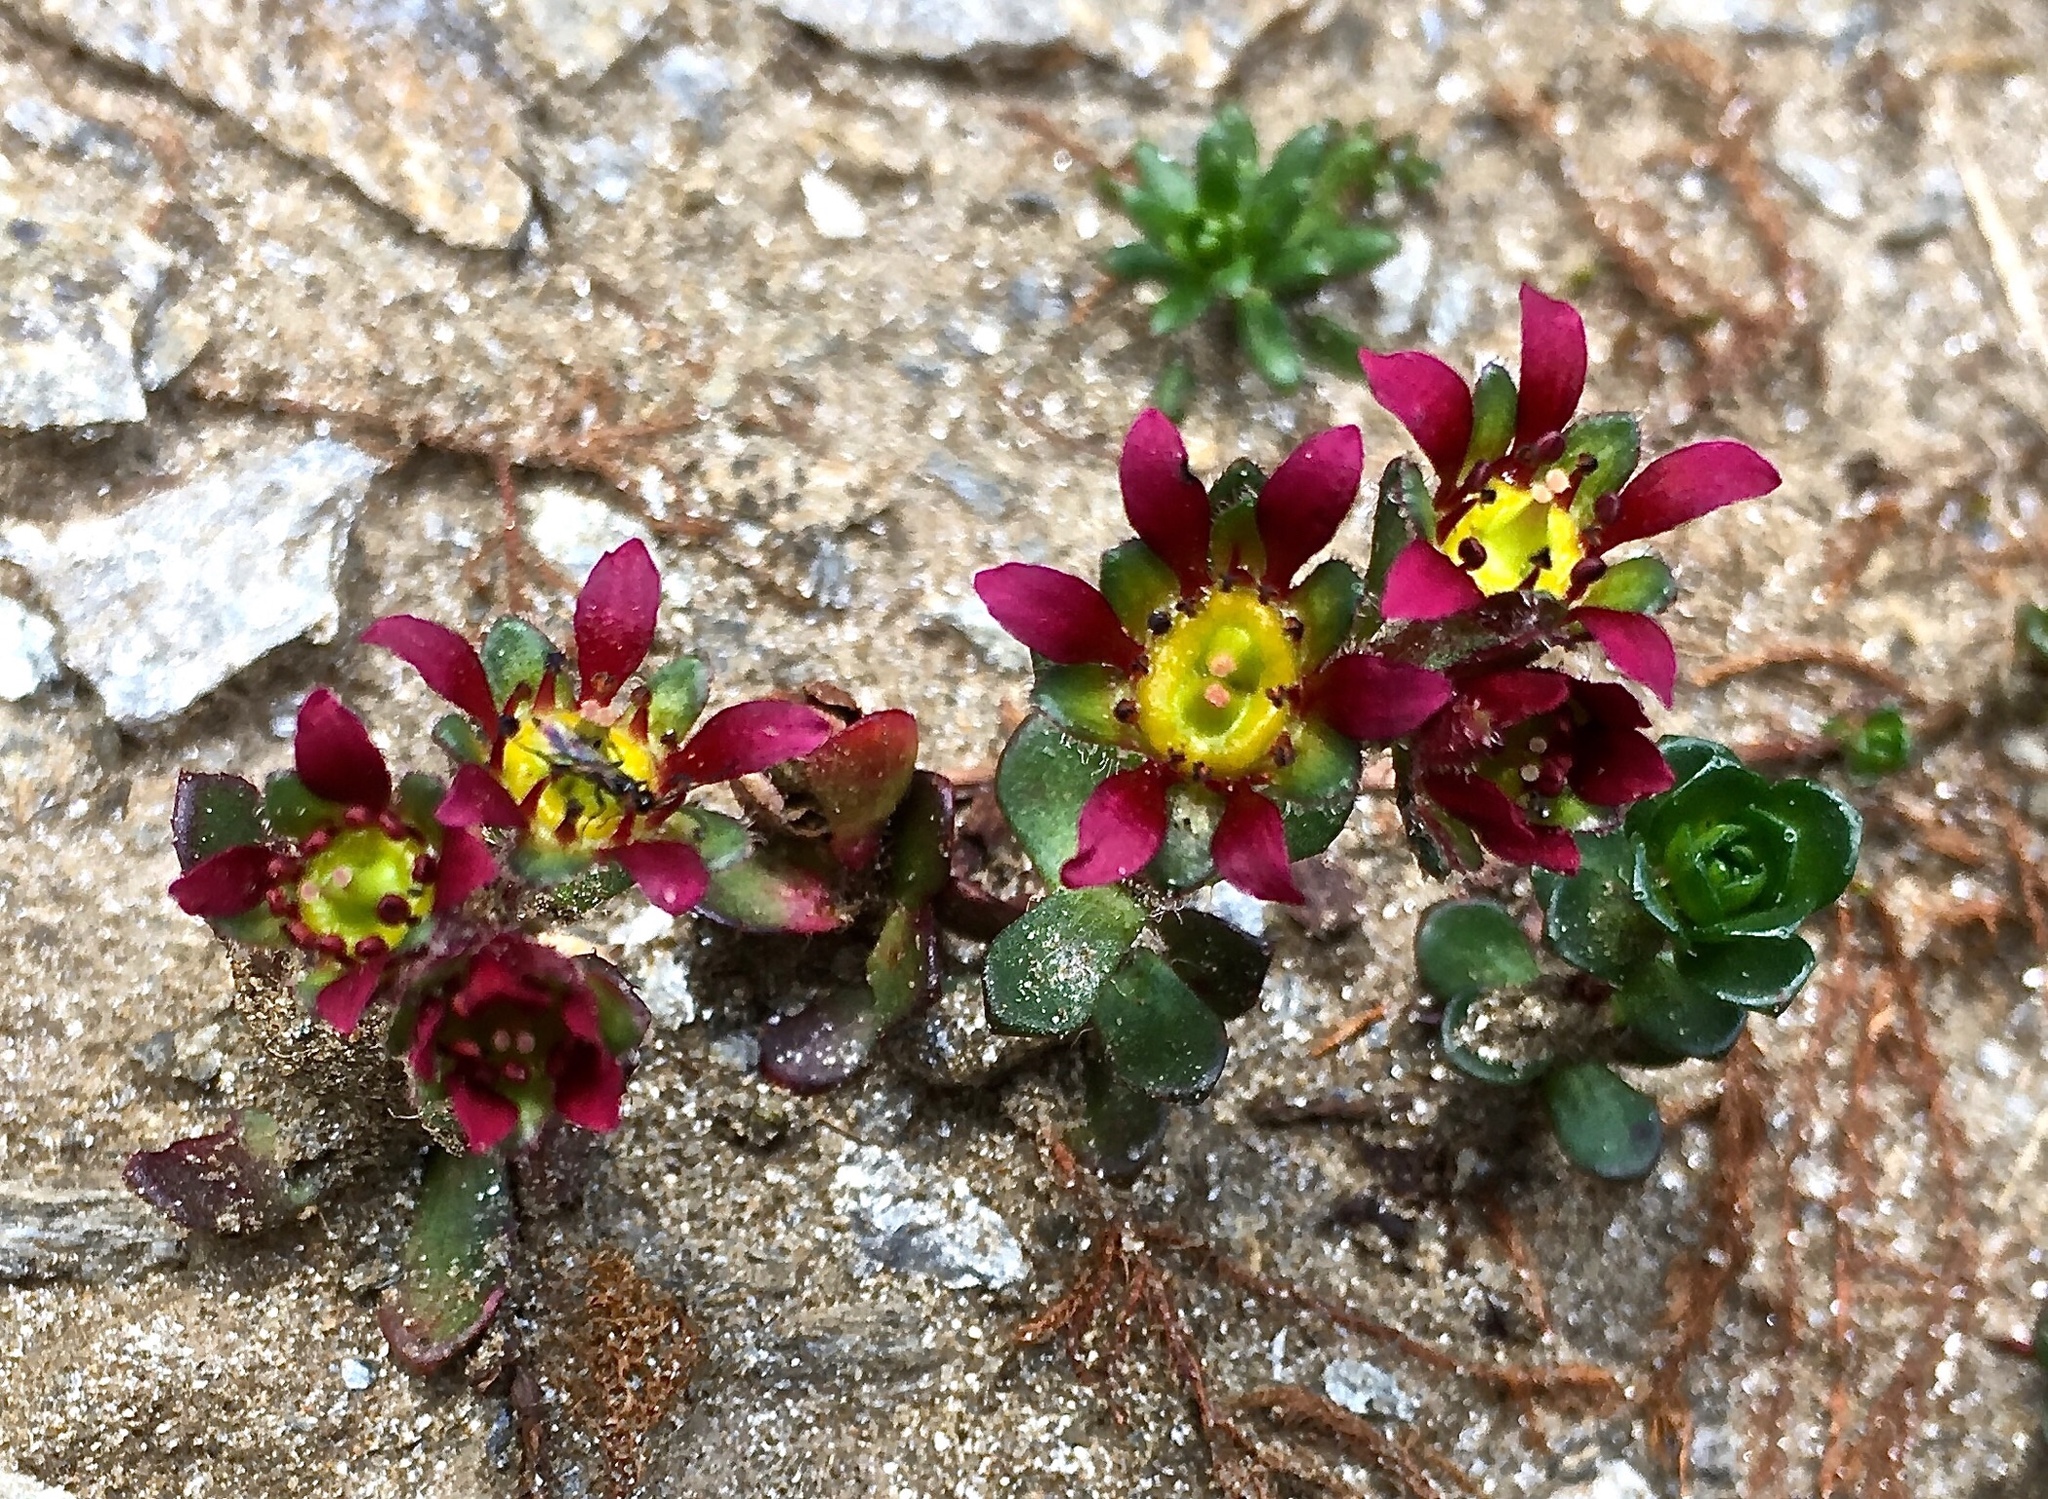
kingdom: Plantae
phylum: Tracheophyta
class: Magnoliopsida
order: Saxifragales
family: Saxifragaceae
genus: Saxifraga
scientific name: Saxifraga biflora
